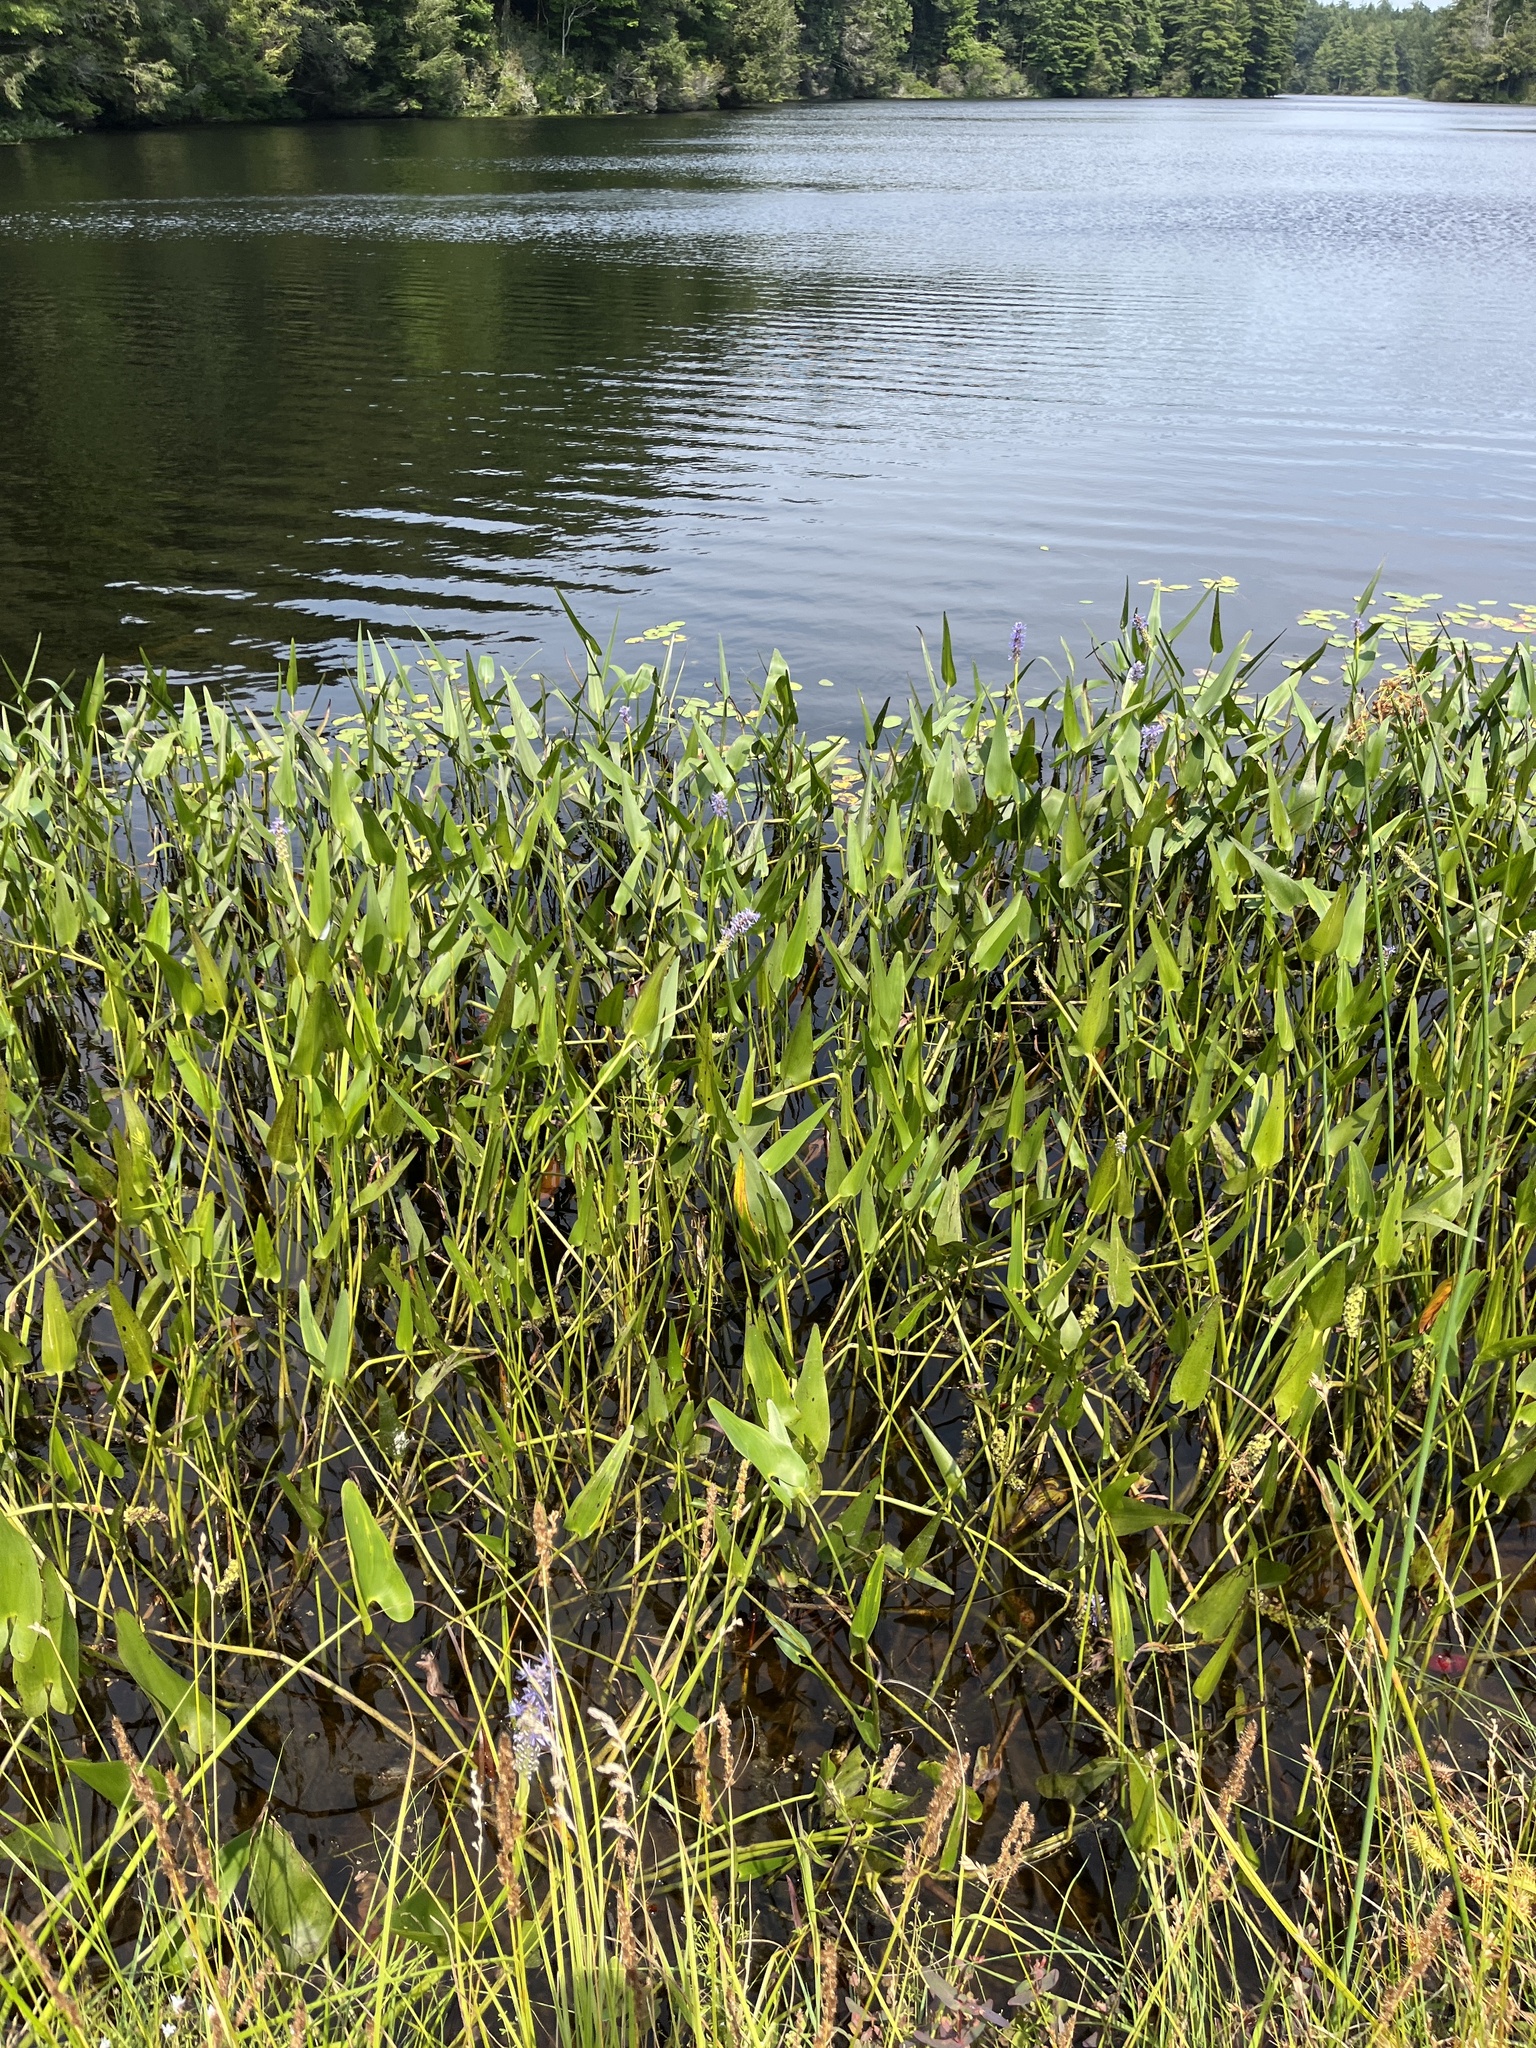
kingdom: Plantae
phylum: Tracheophyta
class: Liliopsida
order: Commelinales
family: Pontederiaceae
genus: Pontederia
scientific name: Pontederia cordata
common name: Pickerelweed
